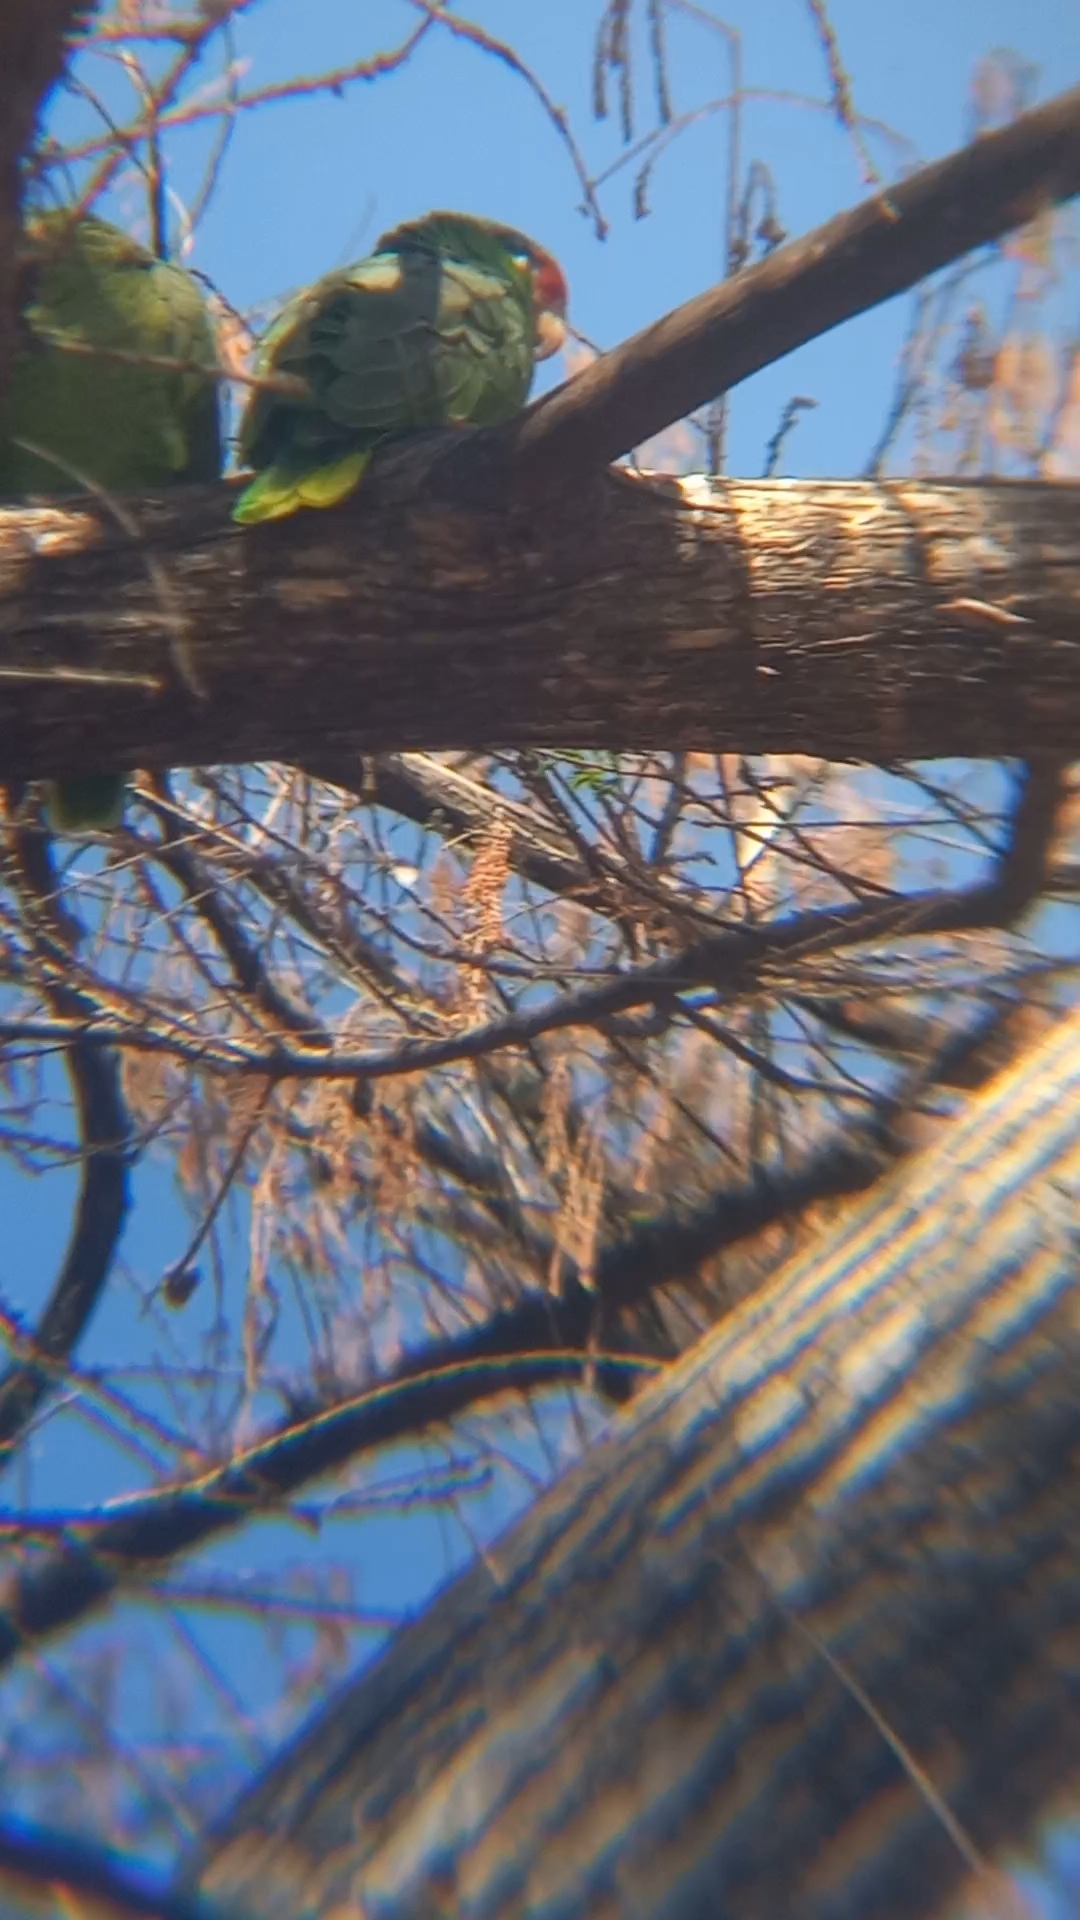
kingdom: Animalia
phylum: Chordata
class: Aves
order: Psittaciformes
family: Psittacidae
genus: Amazona
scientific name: Amazona viridigenalis
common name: Red-crowned amazon
